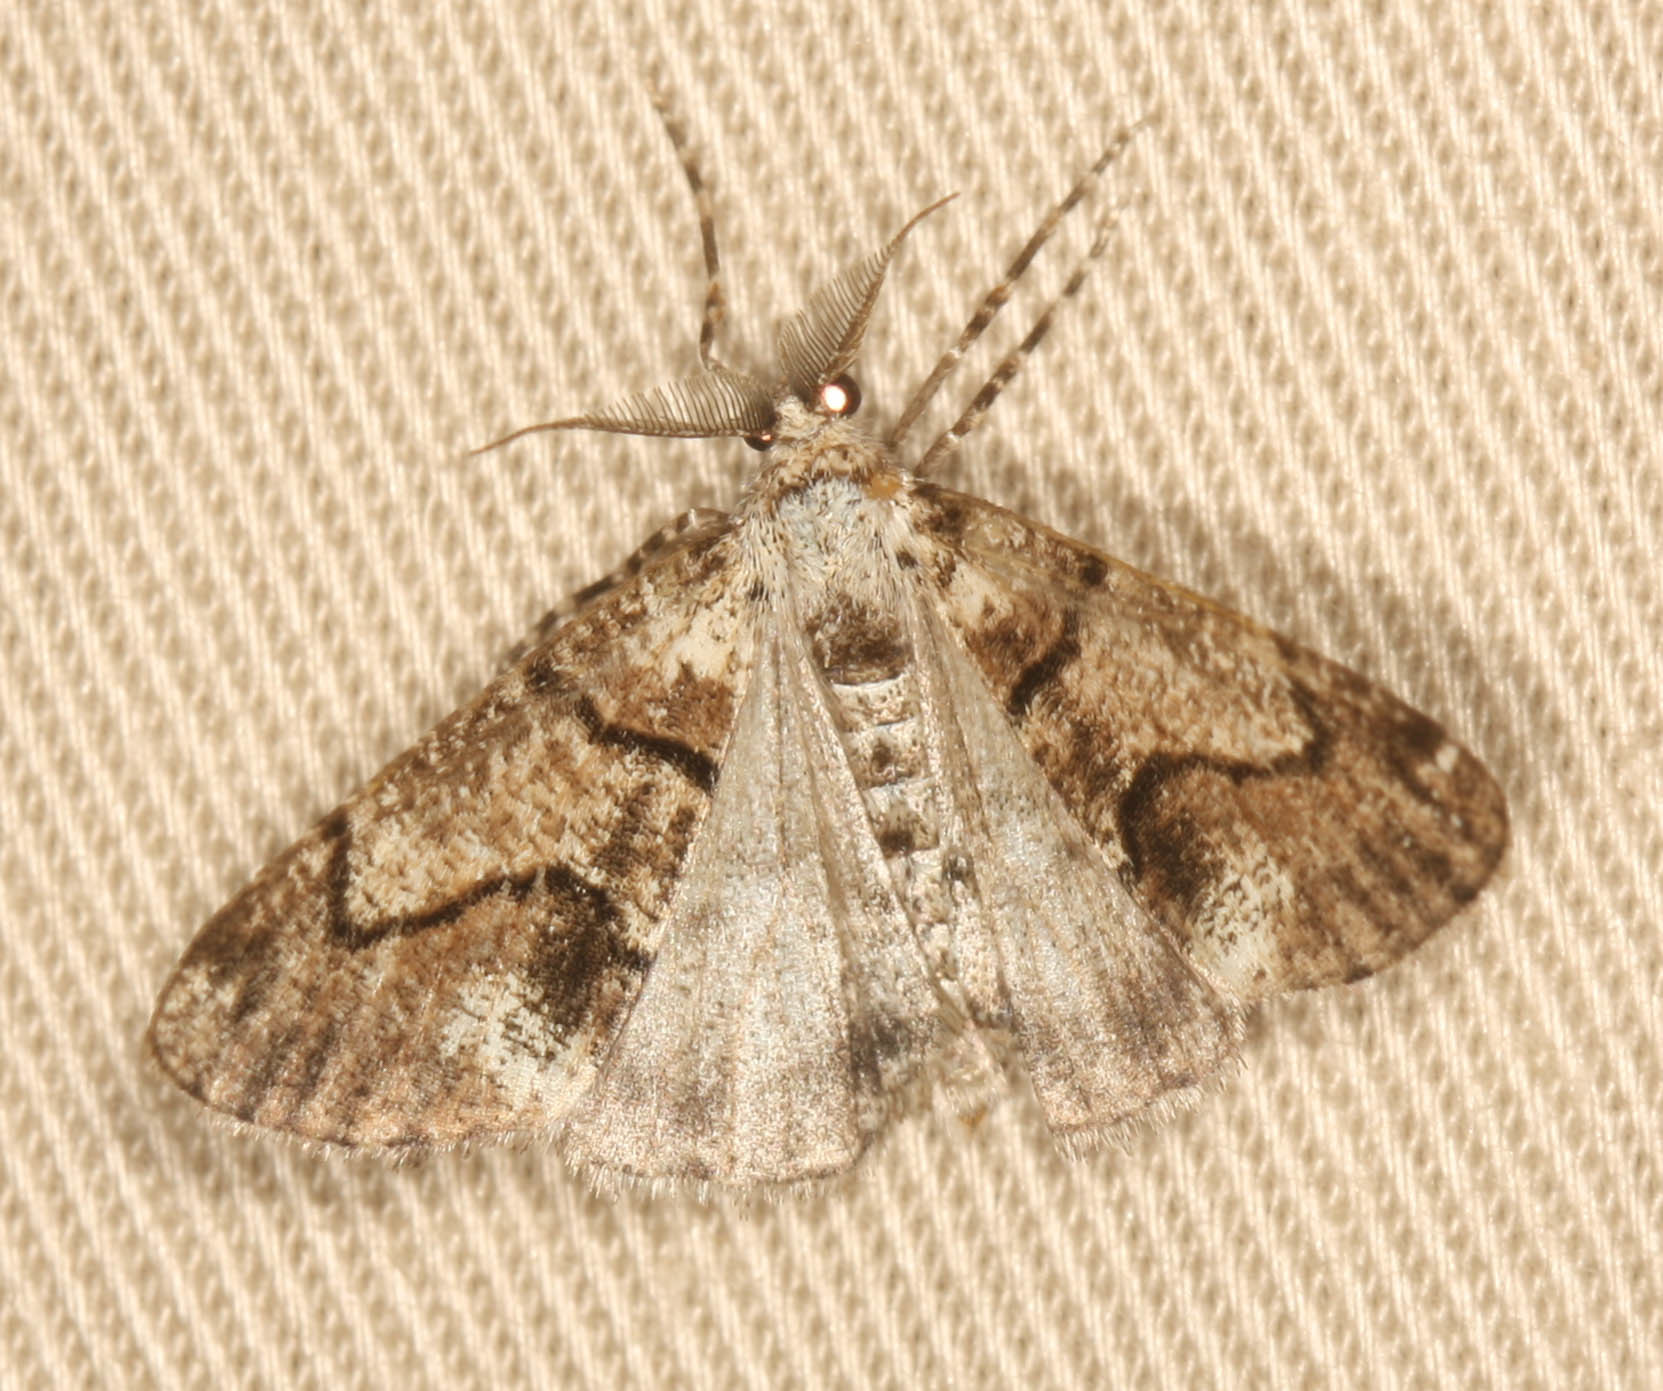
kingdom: Animalia
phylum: Arthropoda
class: Insecta
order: Lepidoptera
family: Geometridae
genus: Gabriola
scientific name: Gabriola dyari
